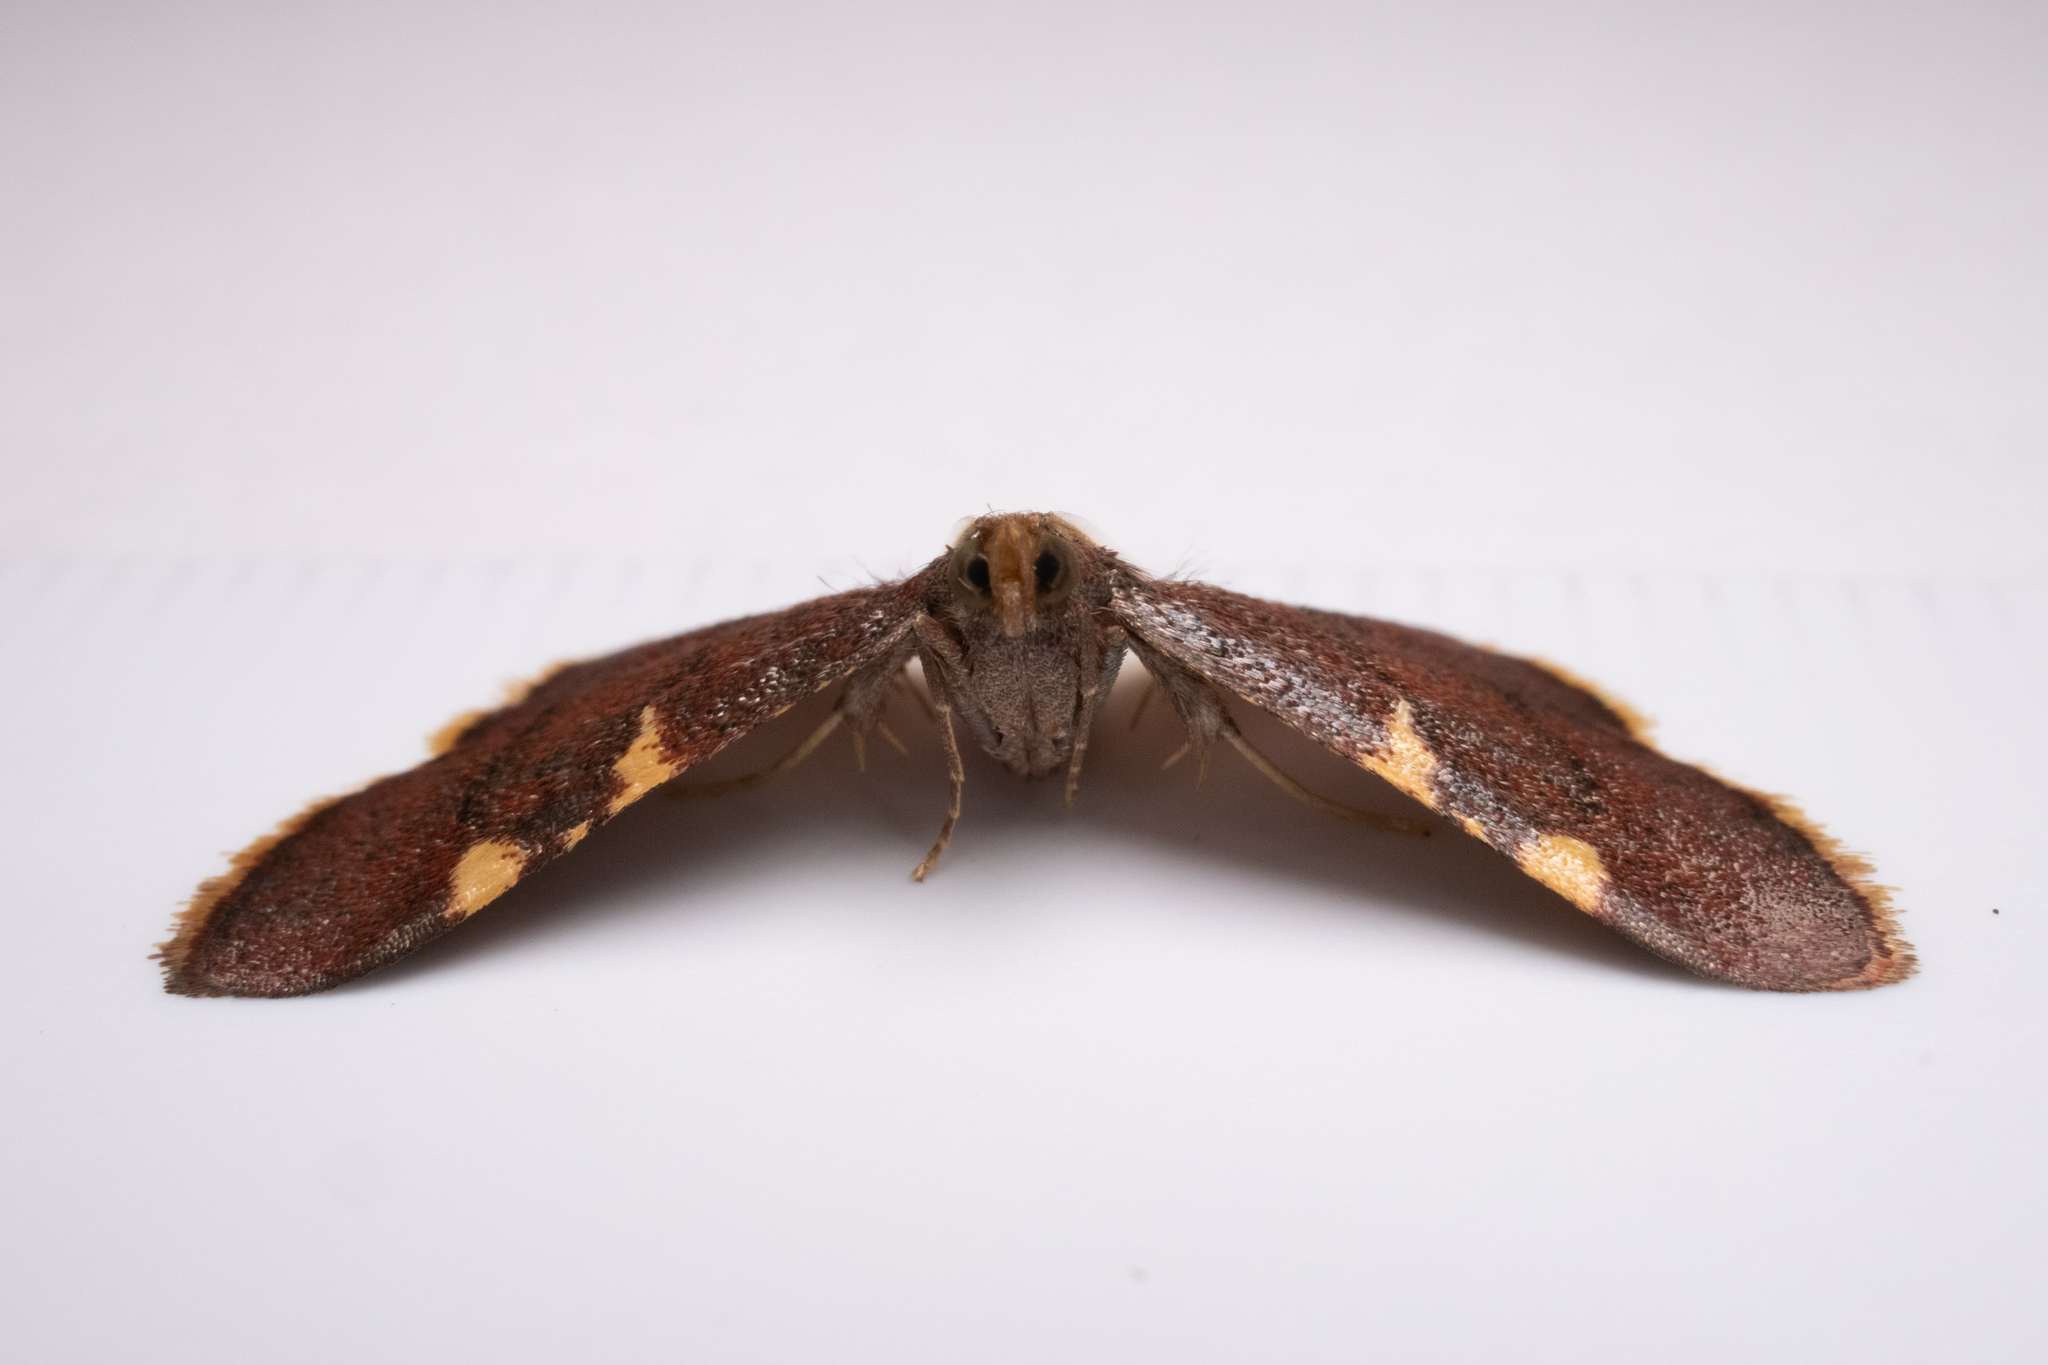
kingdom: Animalia
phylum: Arthropoda
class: Insecta
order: Lepidoptera
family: Pyralidae
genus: Hypsopygia
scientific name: Hypsopygia olinalis
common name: Yellow-fringed dolichomia moth
